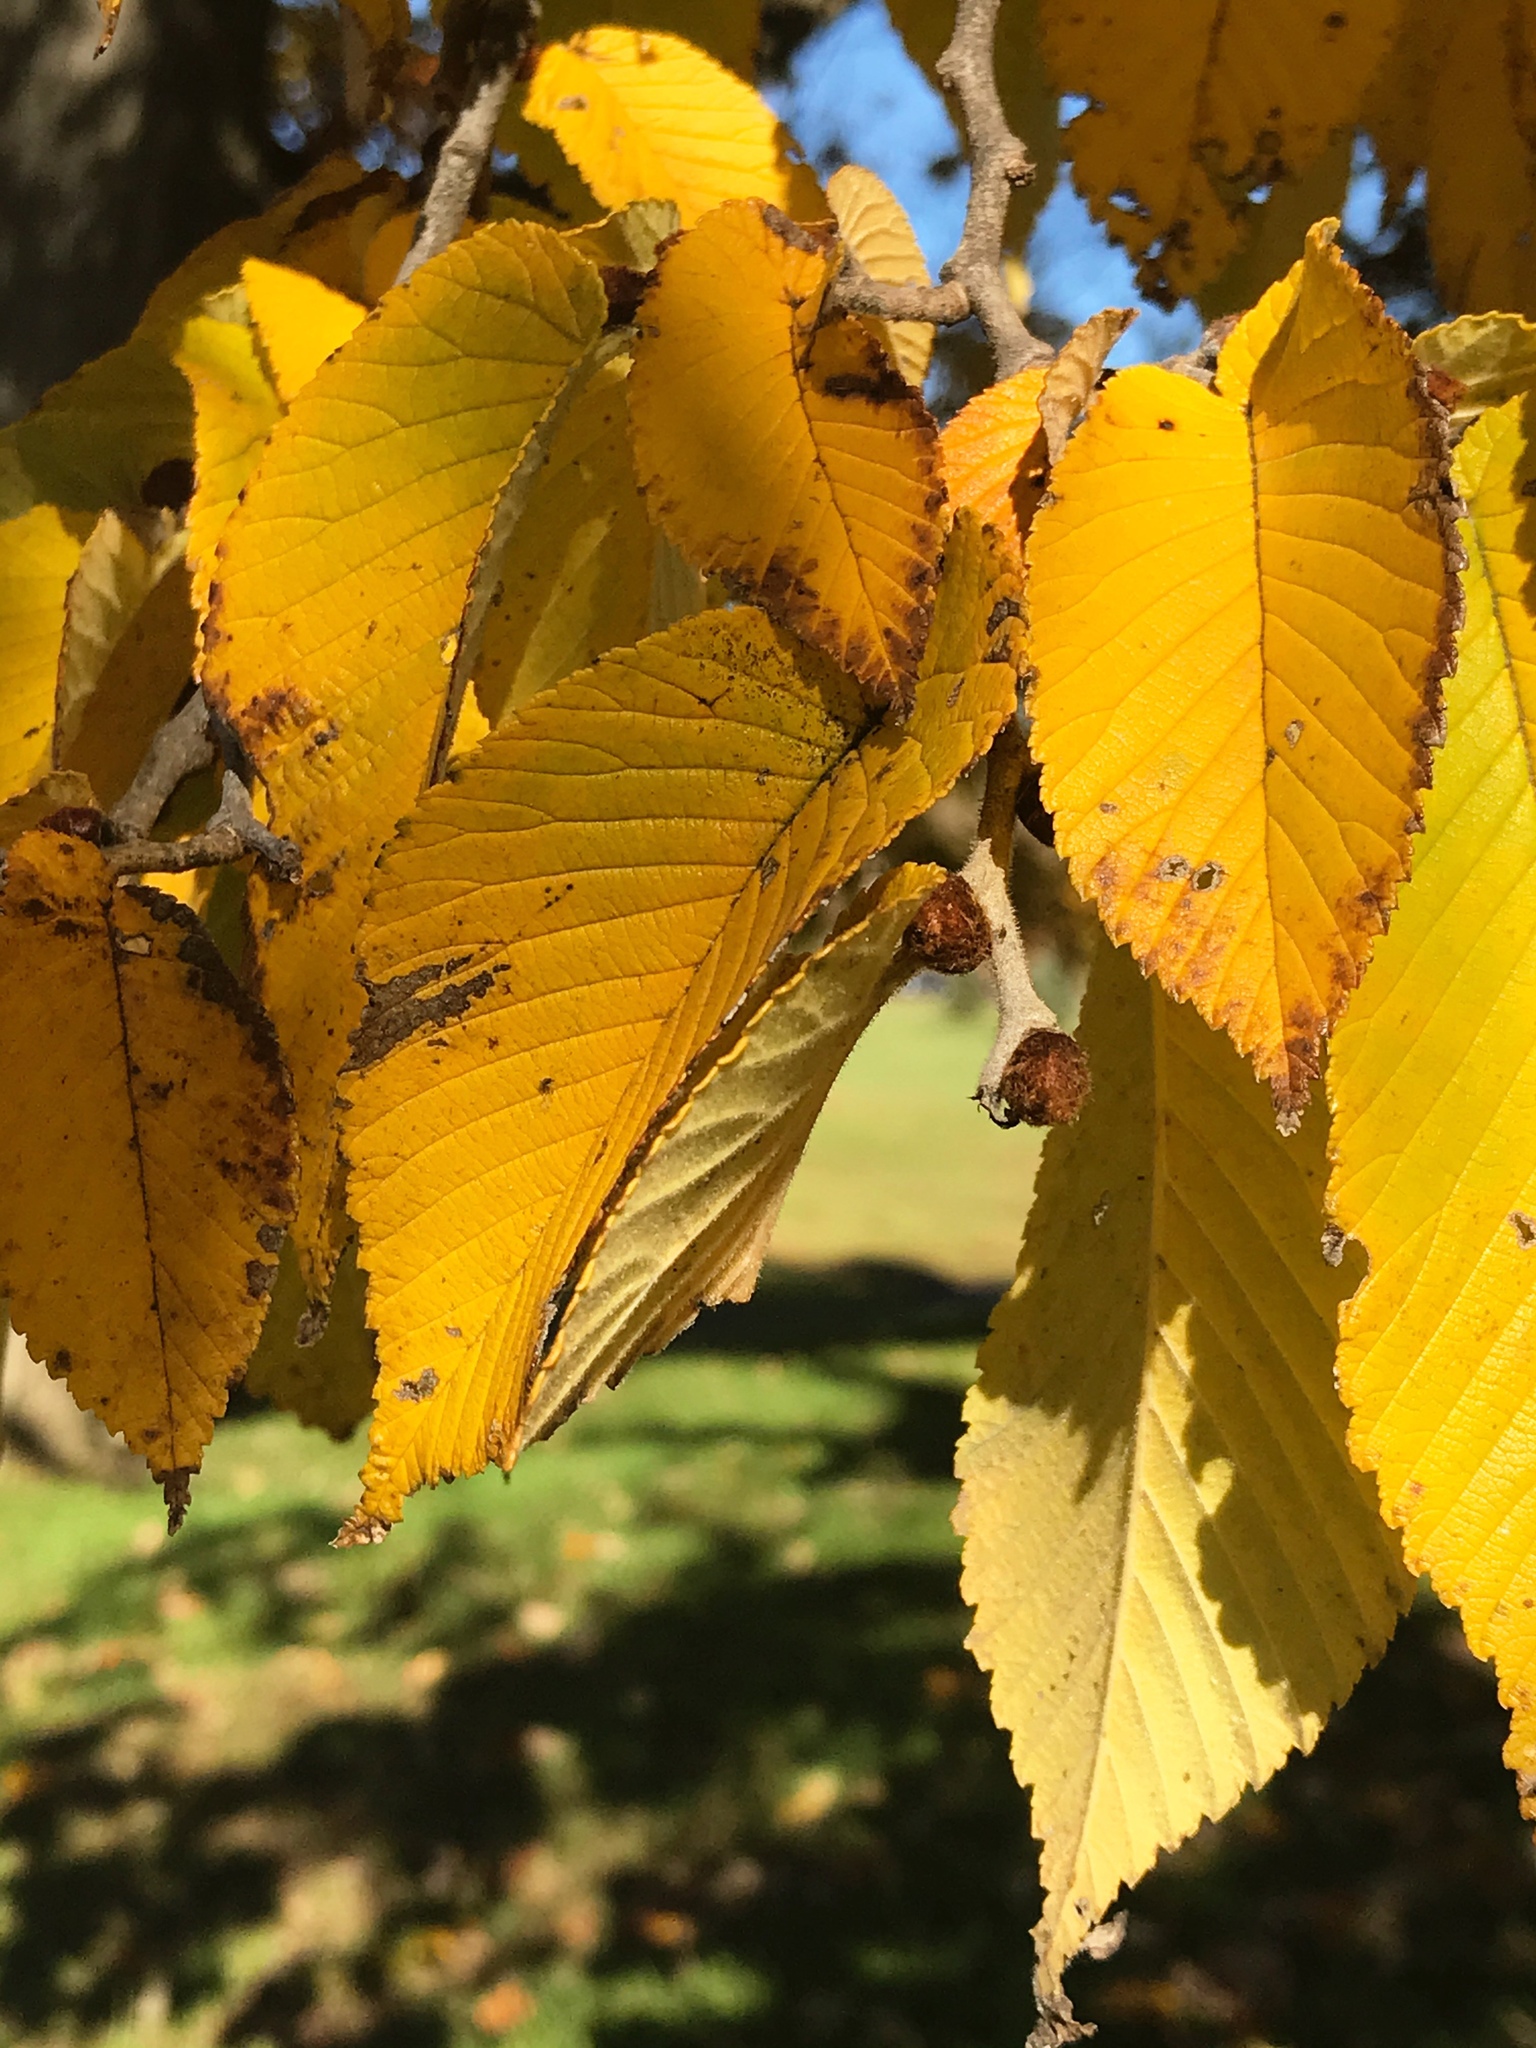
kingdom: Plantae
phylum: Tracheophyta
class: Magnoliopsida
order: Rosales
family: Ulmaceae
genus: Ulmus
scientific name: Ulmus rubra
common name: Slippery elm
